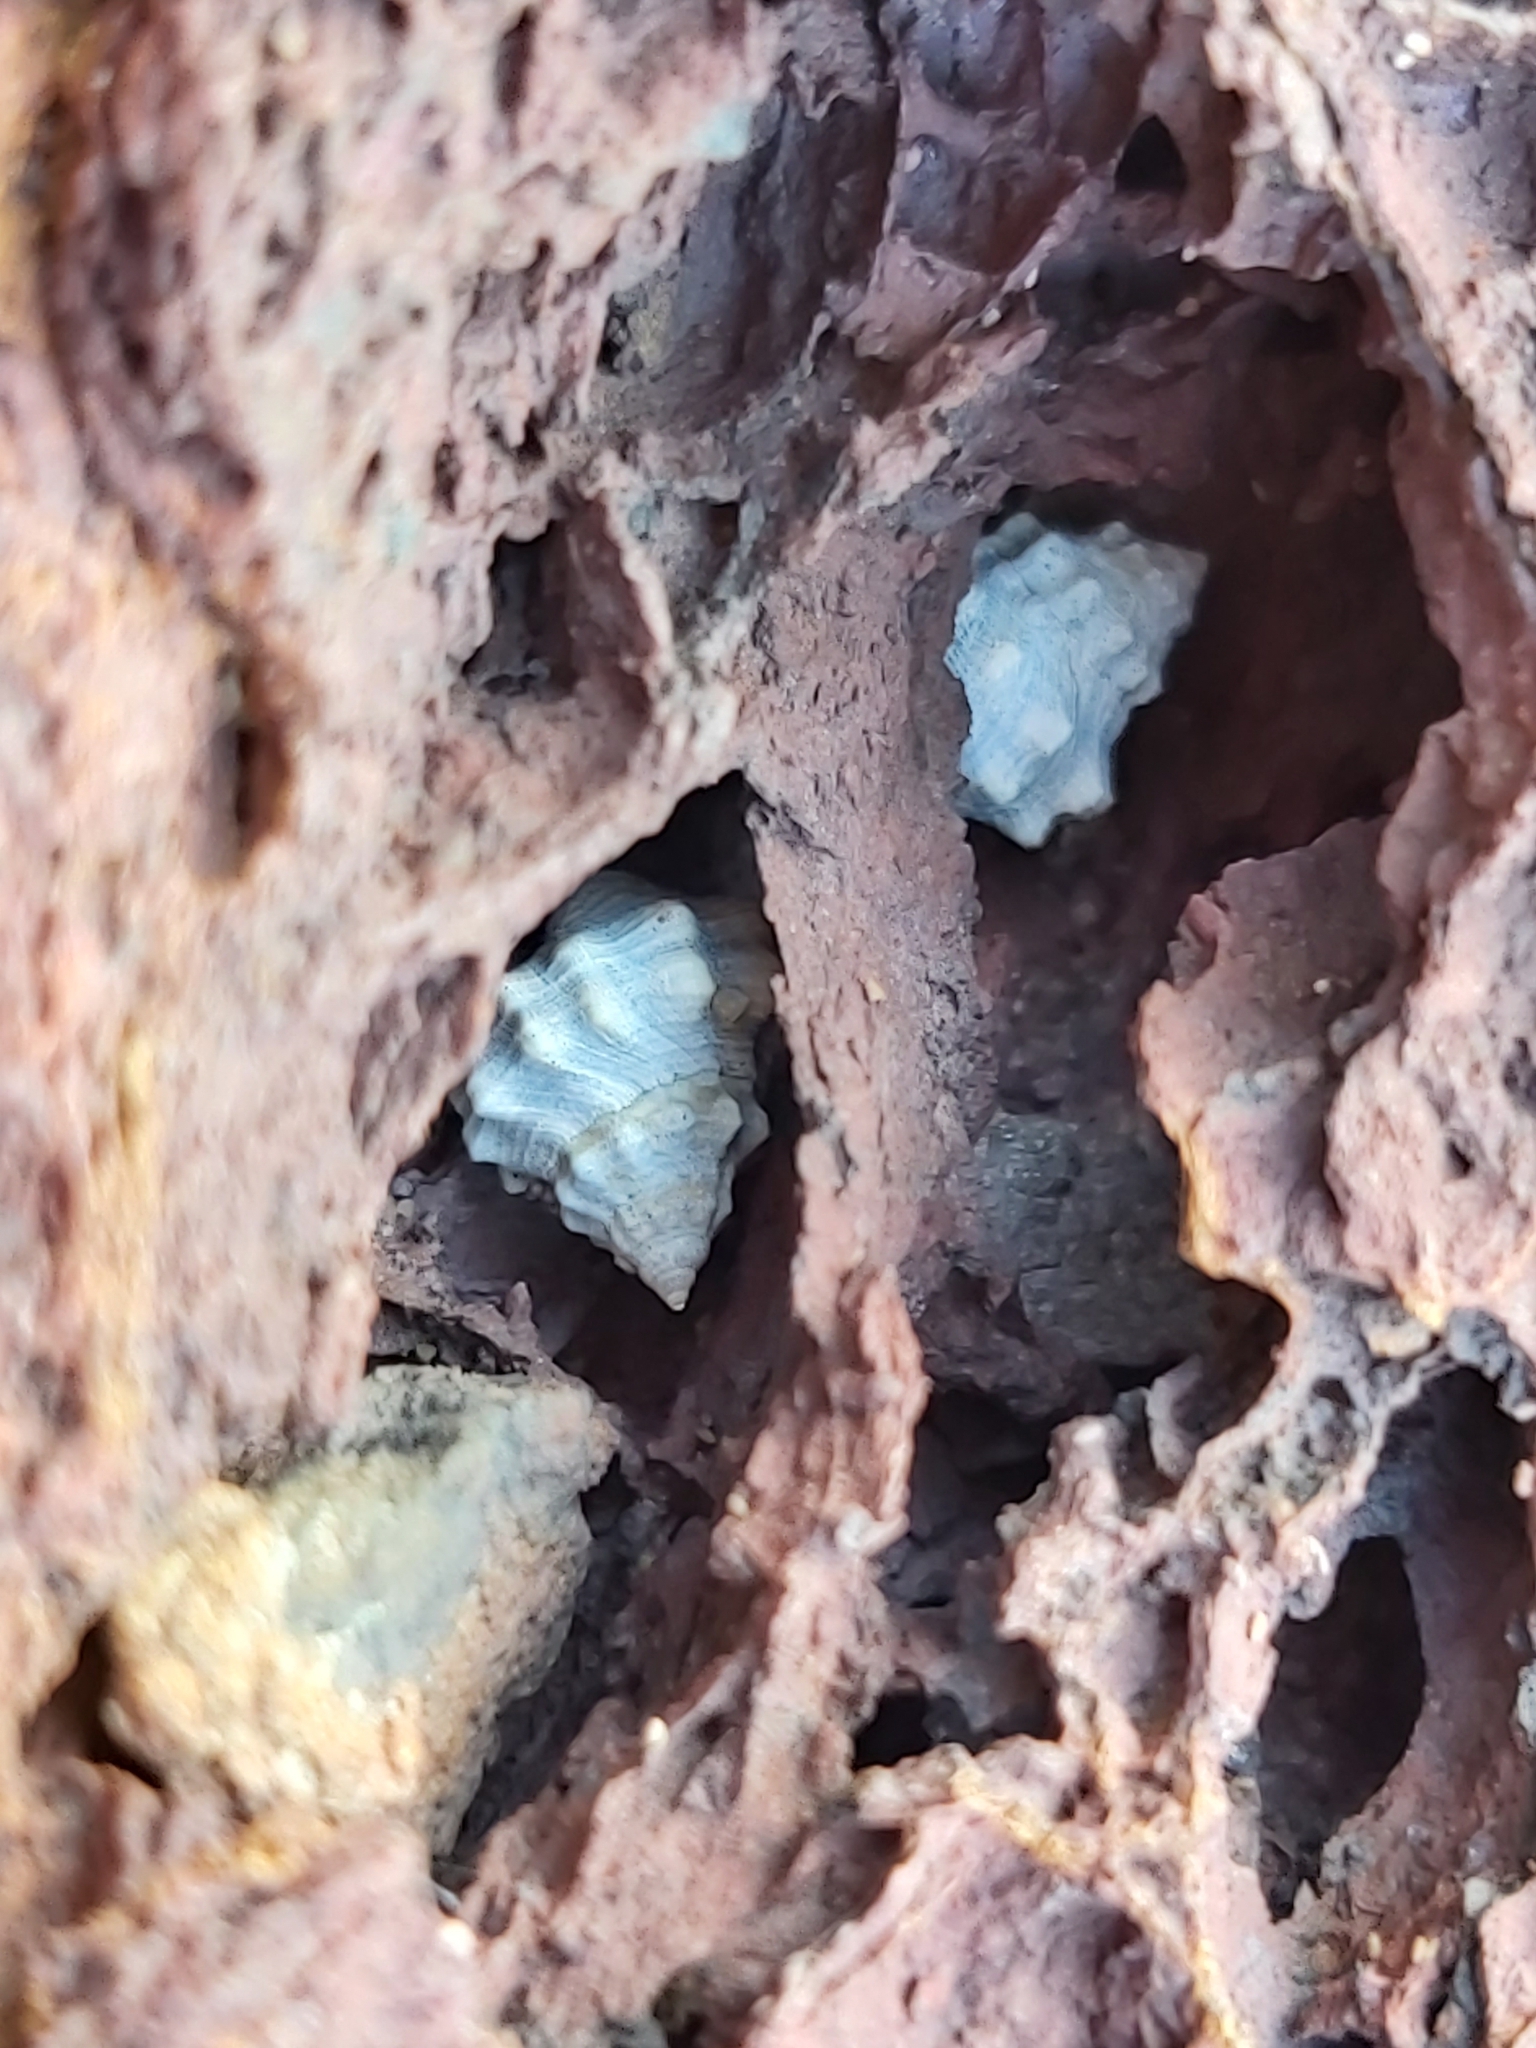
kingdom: Animalia
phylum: Mollusca
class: Gastropoda
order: Littorinimorpha
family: Littorinidae
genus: Nodilittorina
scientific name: Nodilittorina pyramidalis
